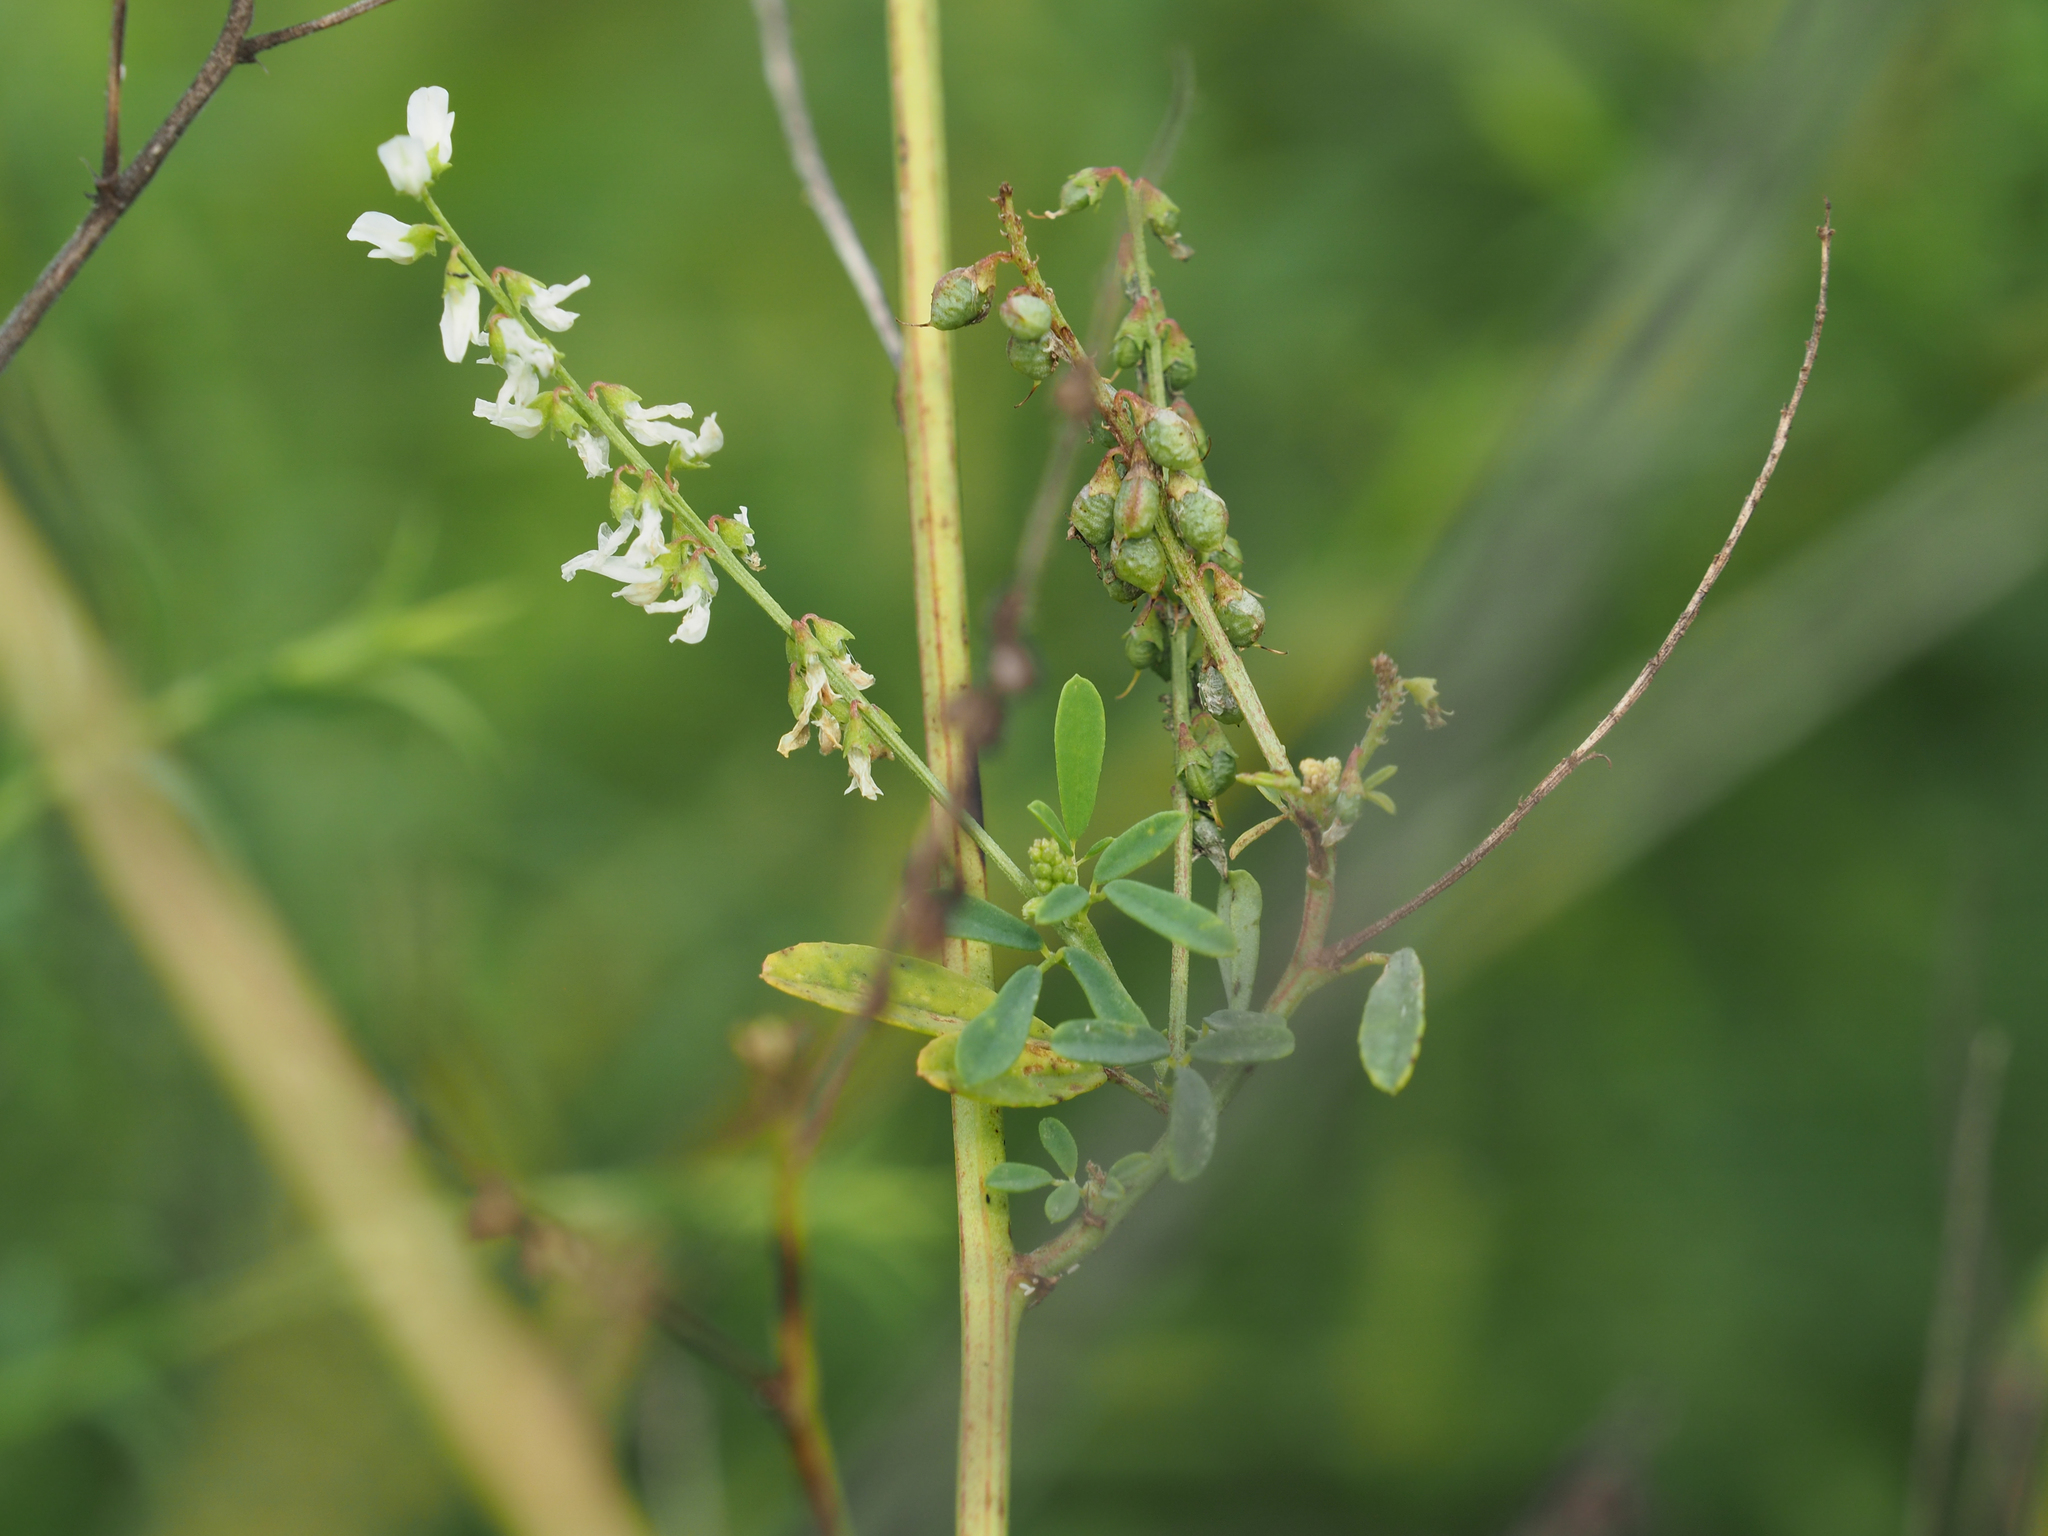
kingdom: Plantae
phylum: Tracheophyta
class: Magnoliopsida
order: Fabales
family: Fabaceae
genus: Melilotus
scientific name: Melilotus albus
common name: White melilot
